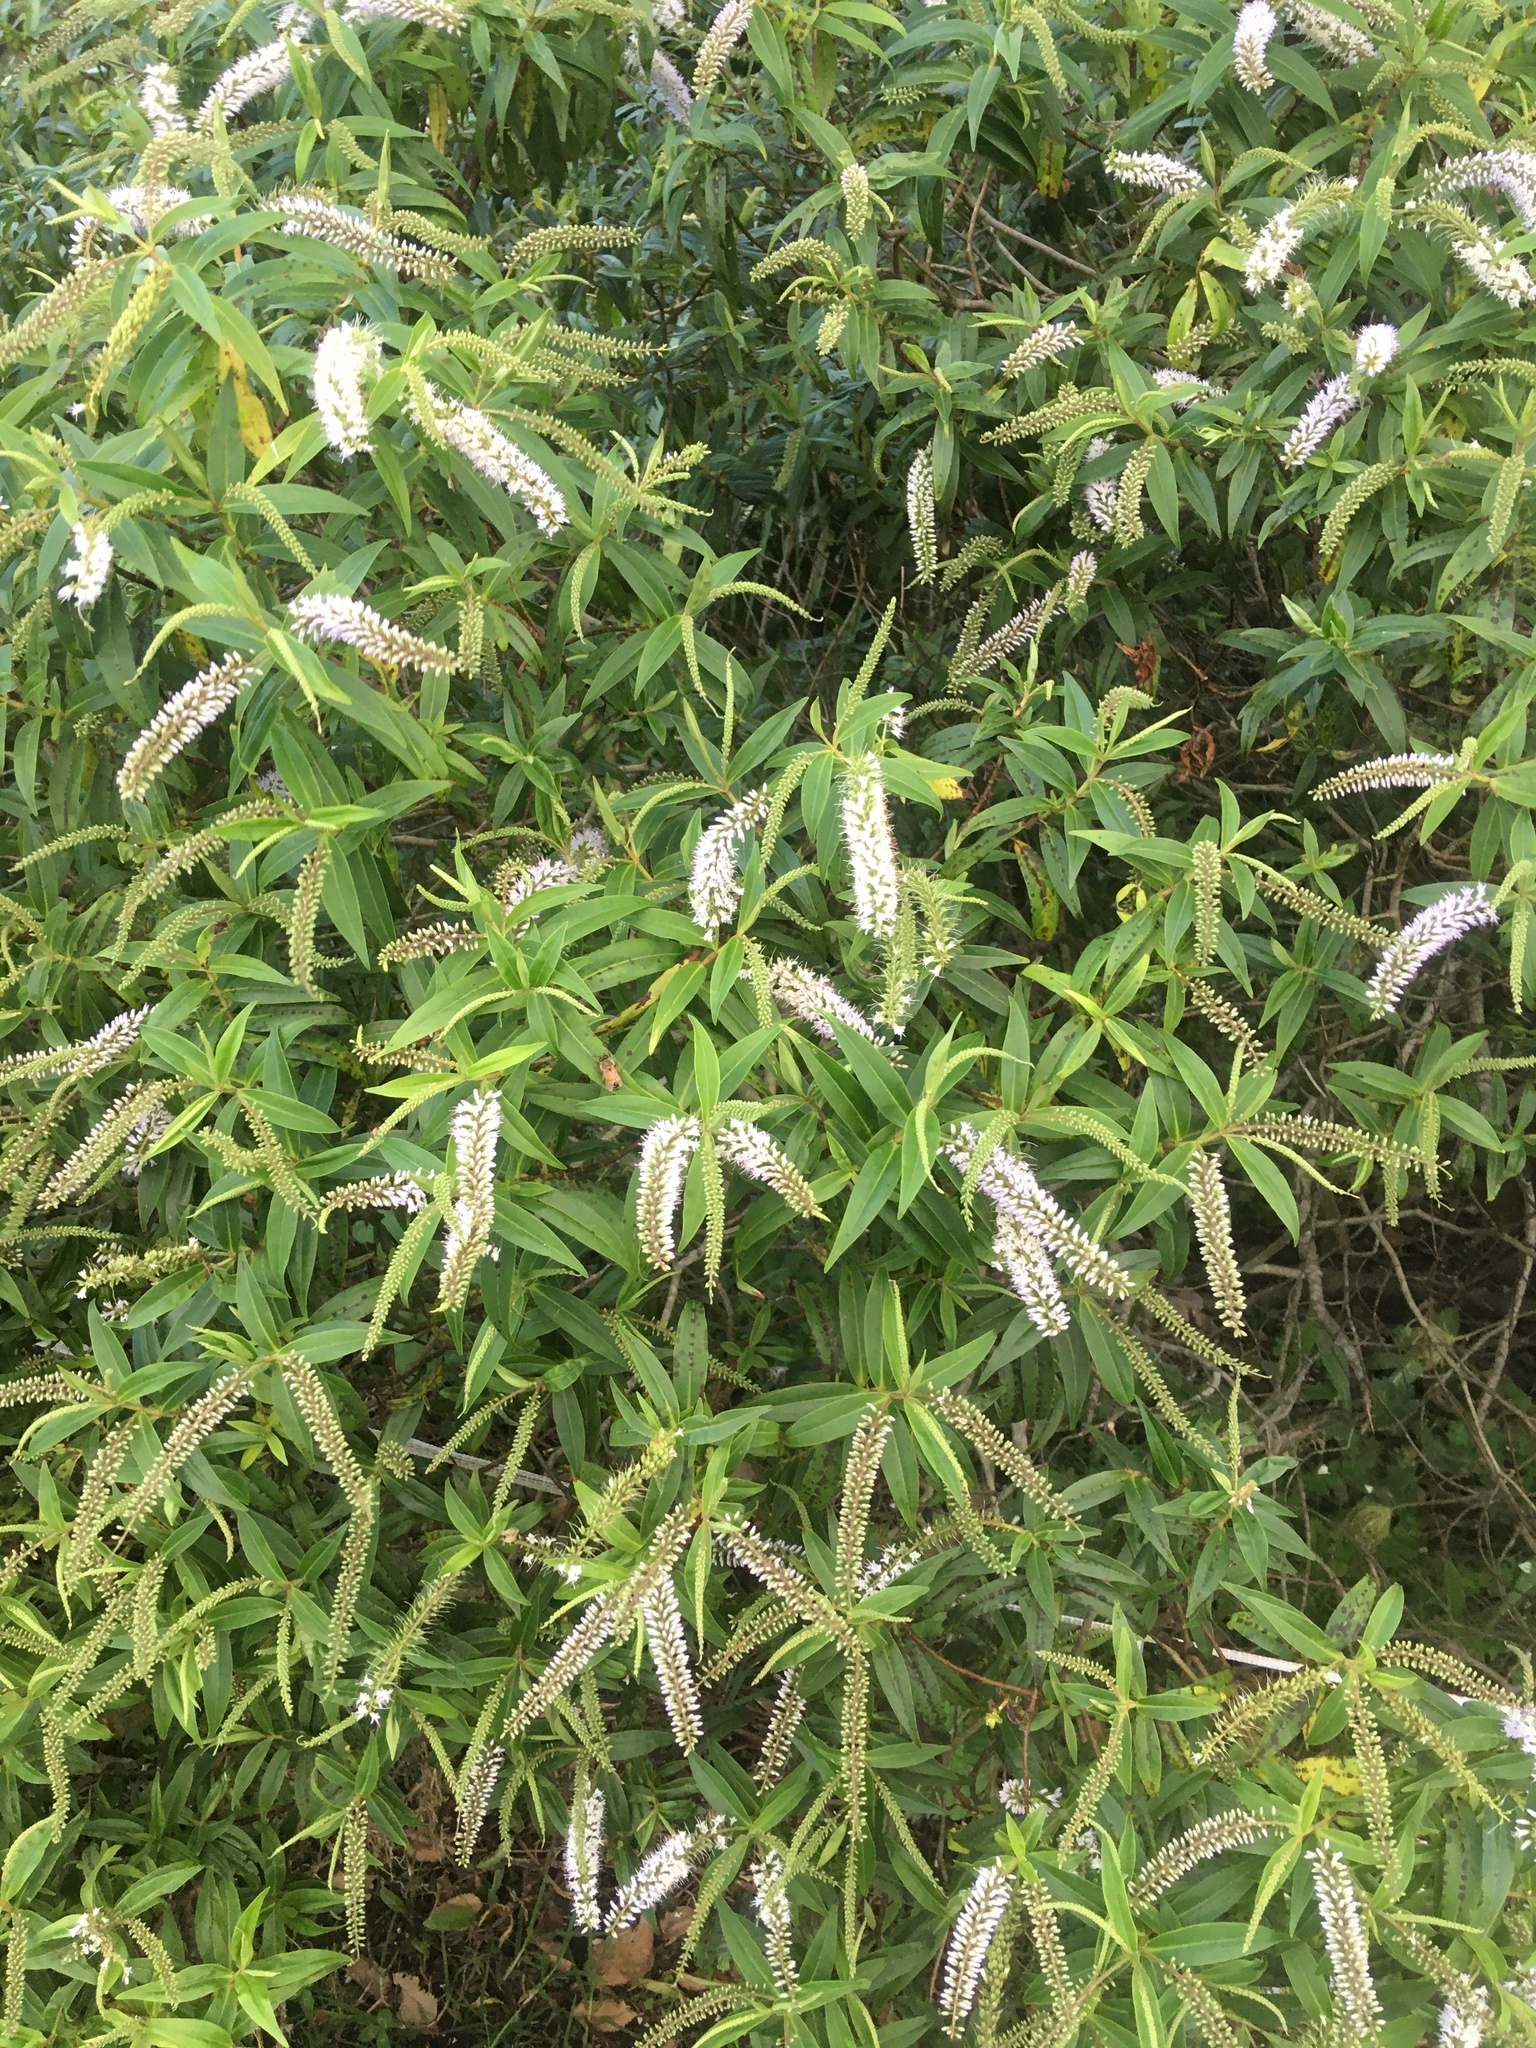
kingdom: Plantae
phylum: Tracheophyta
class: Magnoliopsida
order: Lamiales
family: Plantaginaceae
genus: Veronica
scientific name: Veronica stricta
